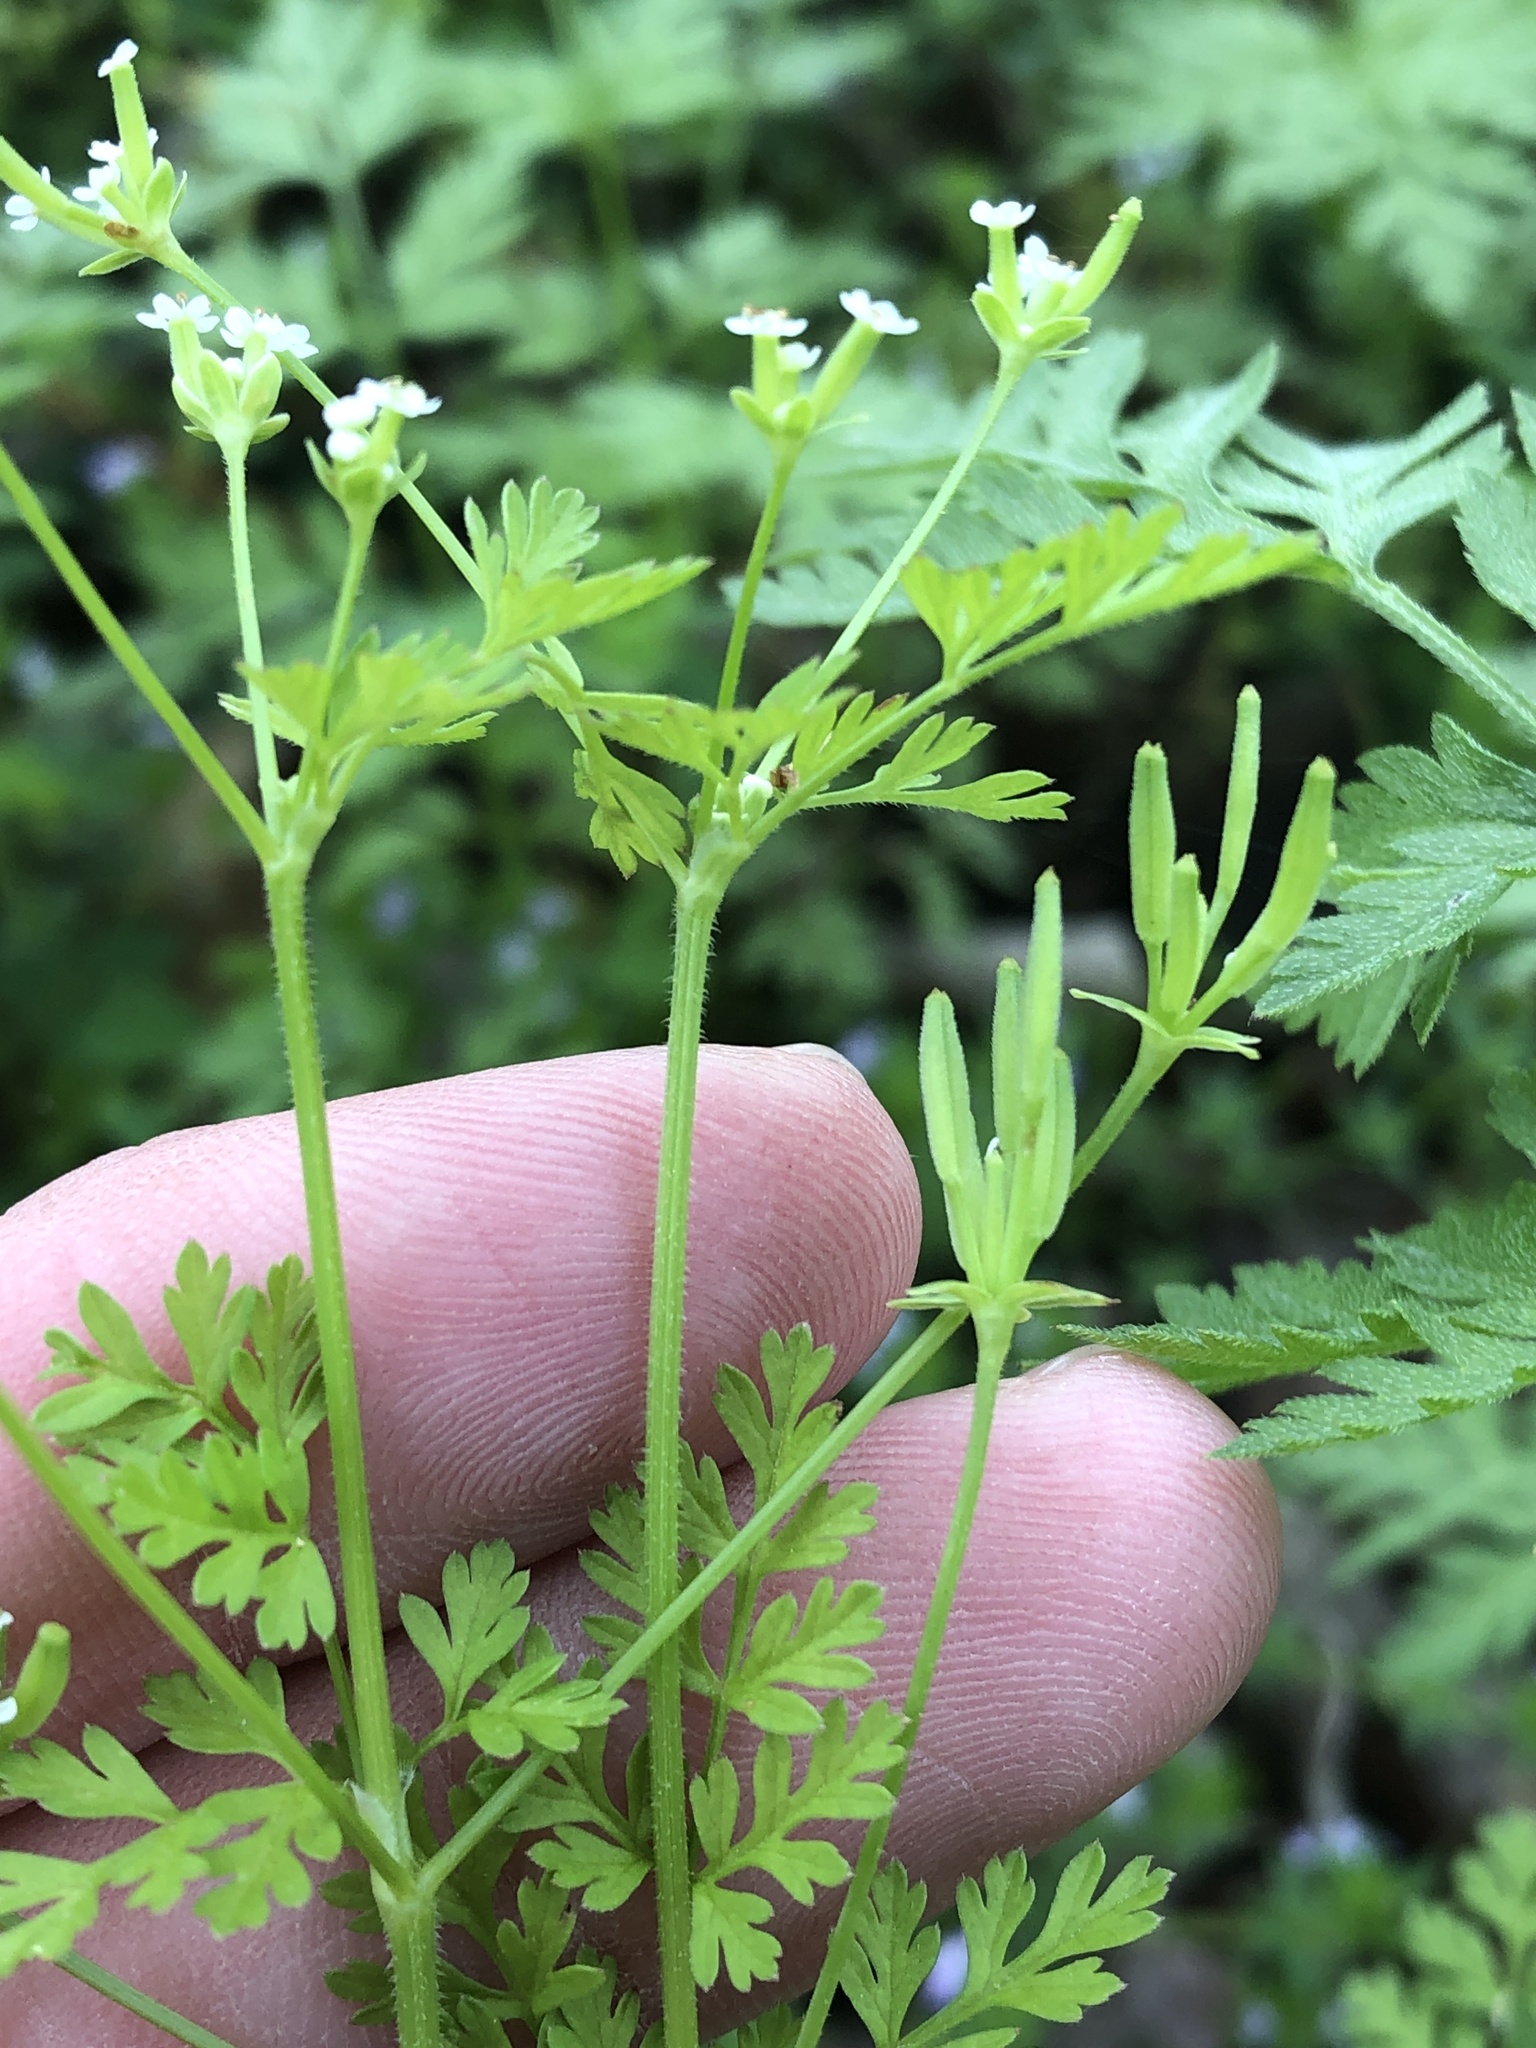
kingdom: Plantae
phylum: Tracheophyta
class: Magnoliopsida
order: Apiales
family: Apiaceae
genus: Chaerophyllum
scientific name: Chaerophyllum tainturieri
